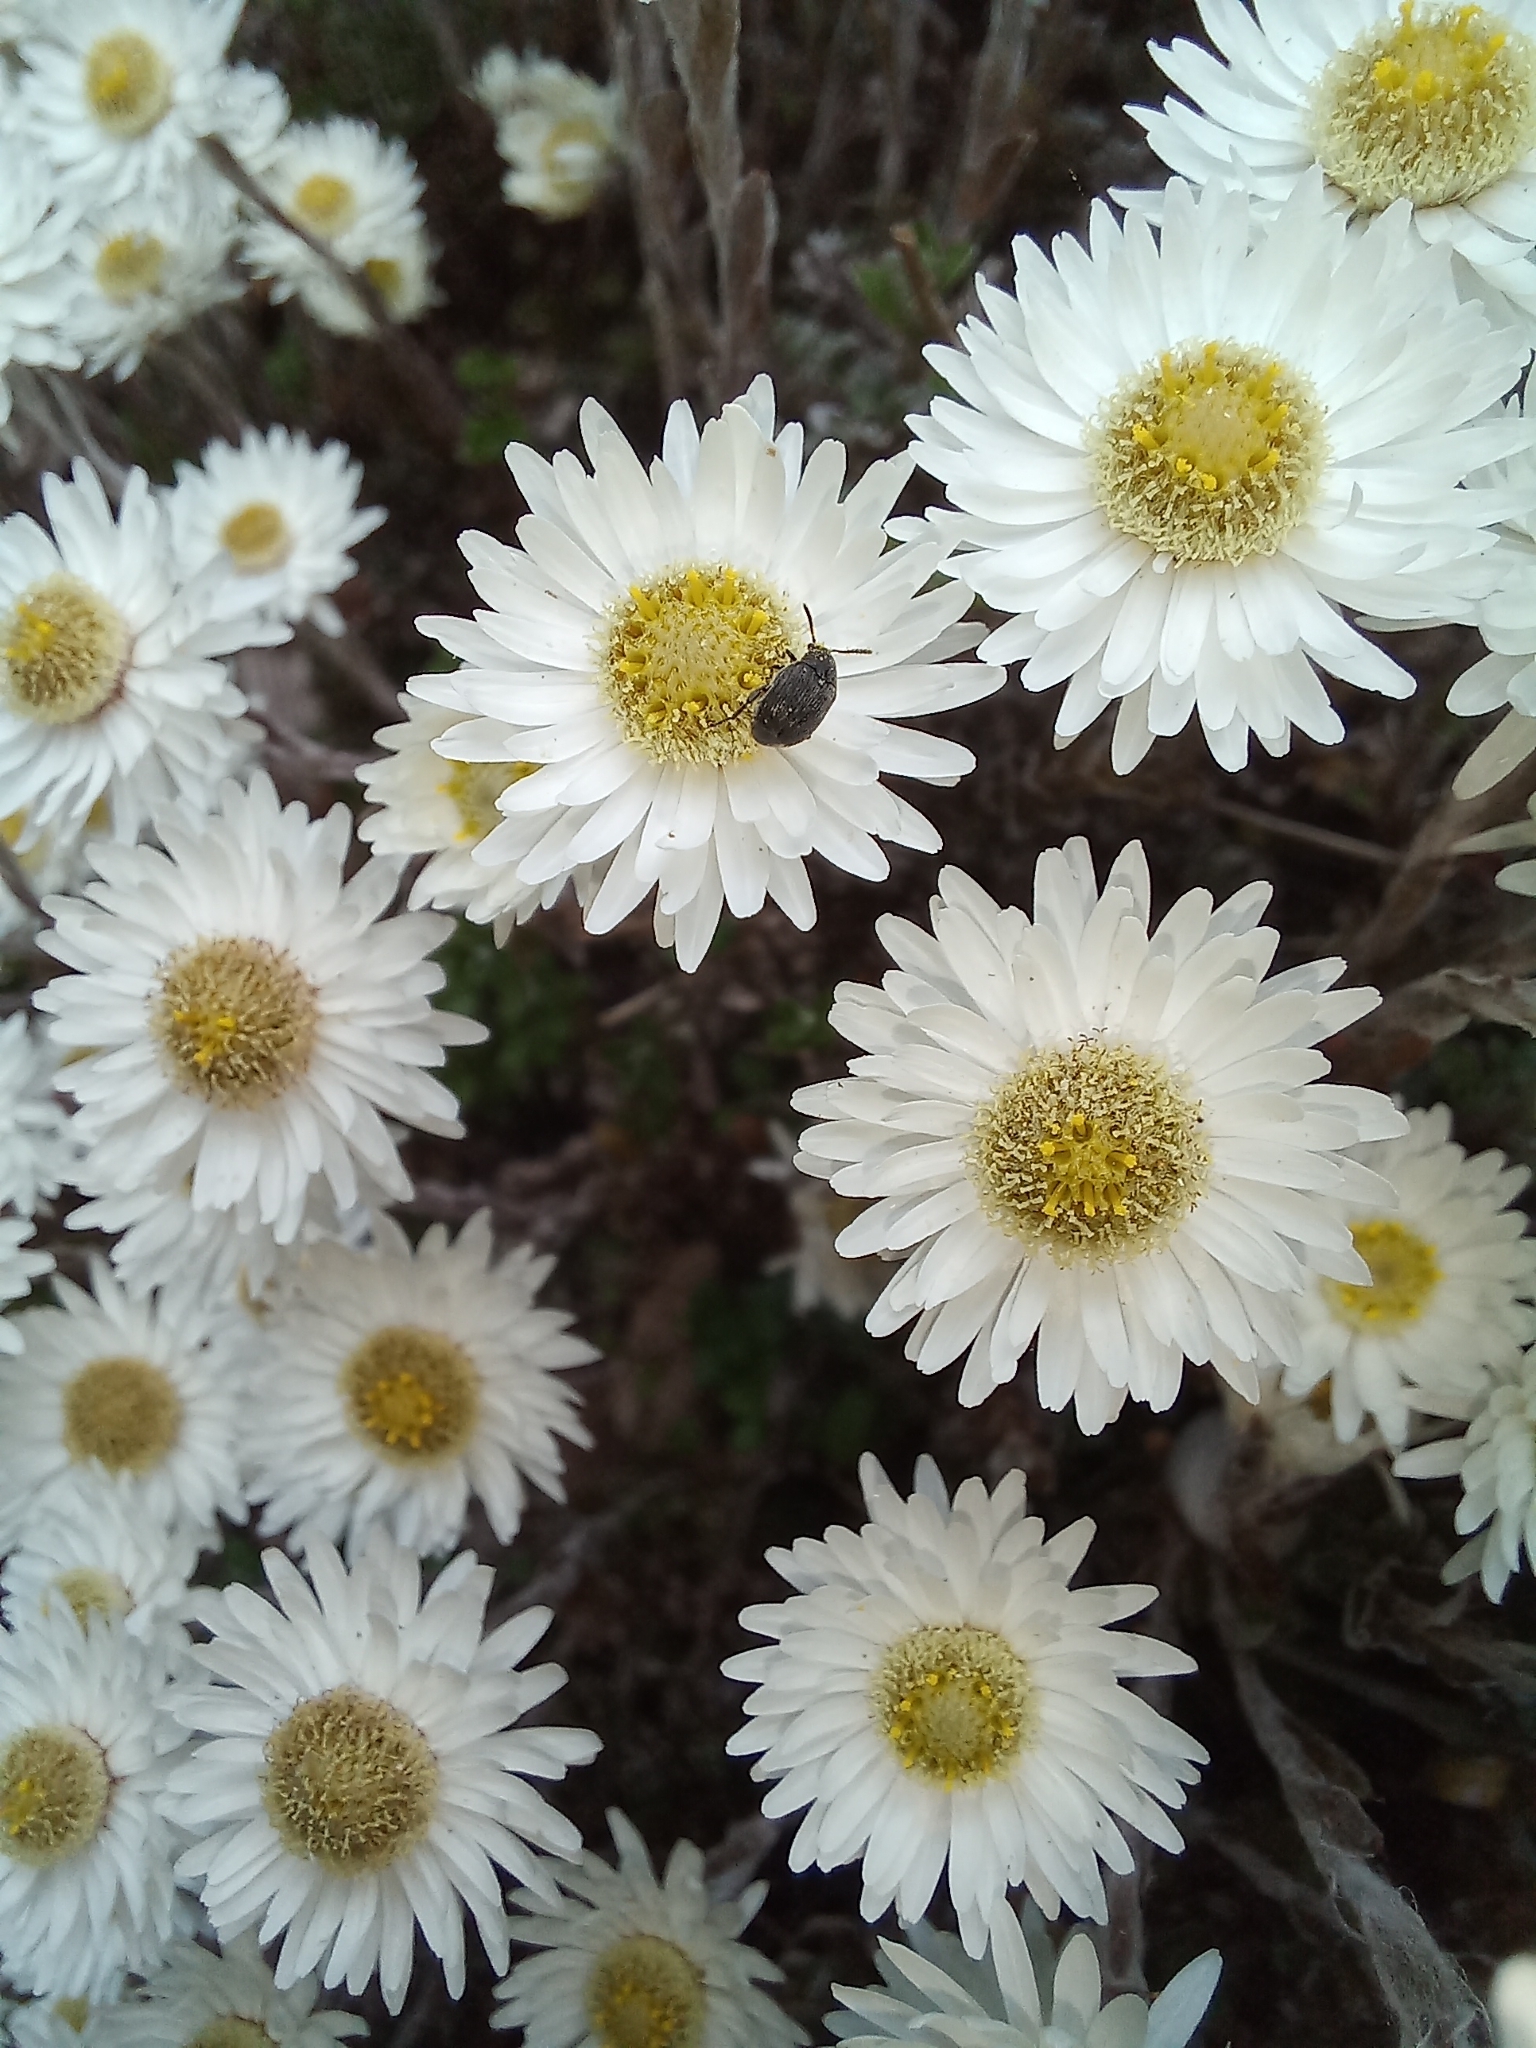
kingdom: Animalia
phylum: Arthropoda
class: Insecta
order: Coleoptera
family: Chrysomelidae
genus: Bruchidius
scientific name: Bruchidius villosus
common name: Scotch broom bruchid
